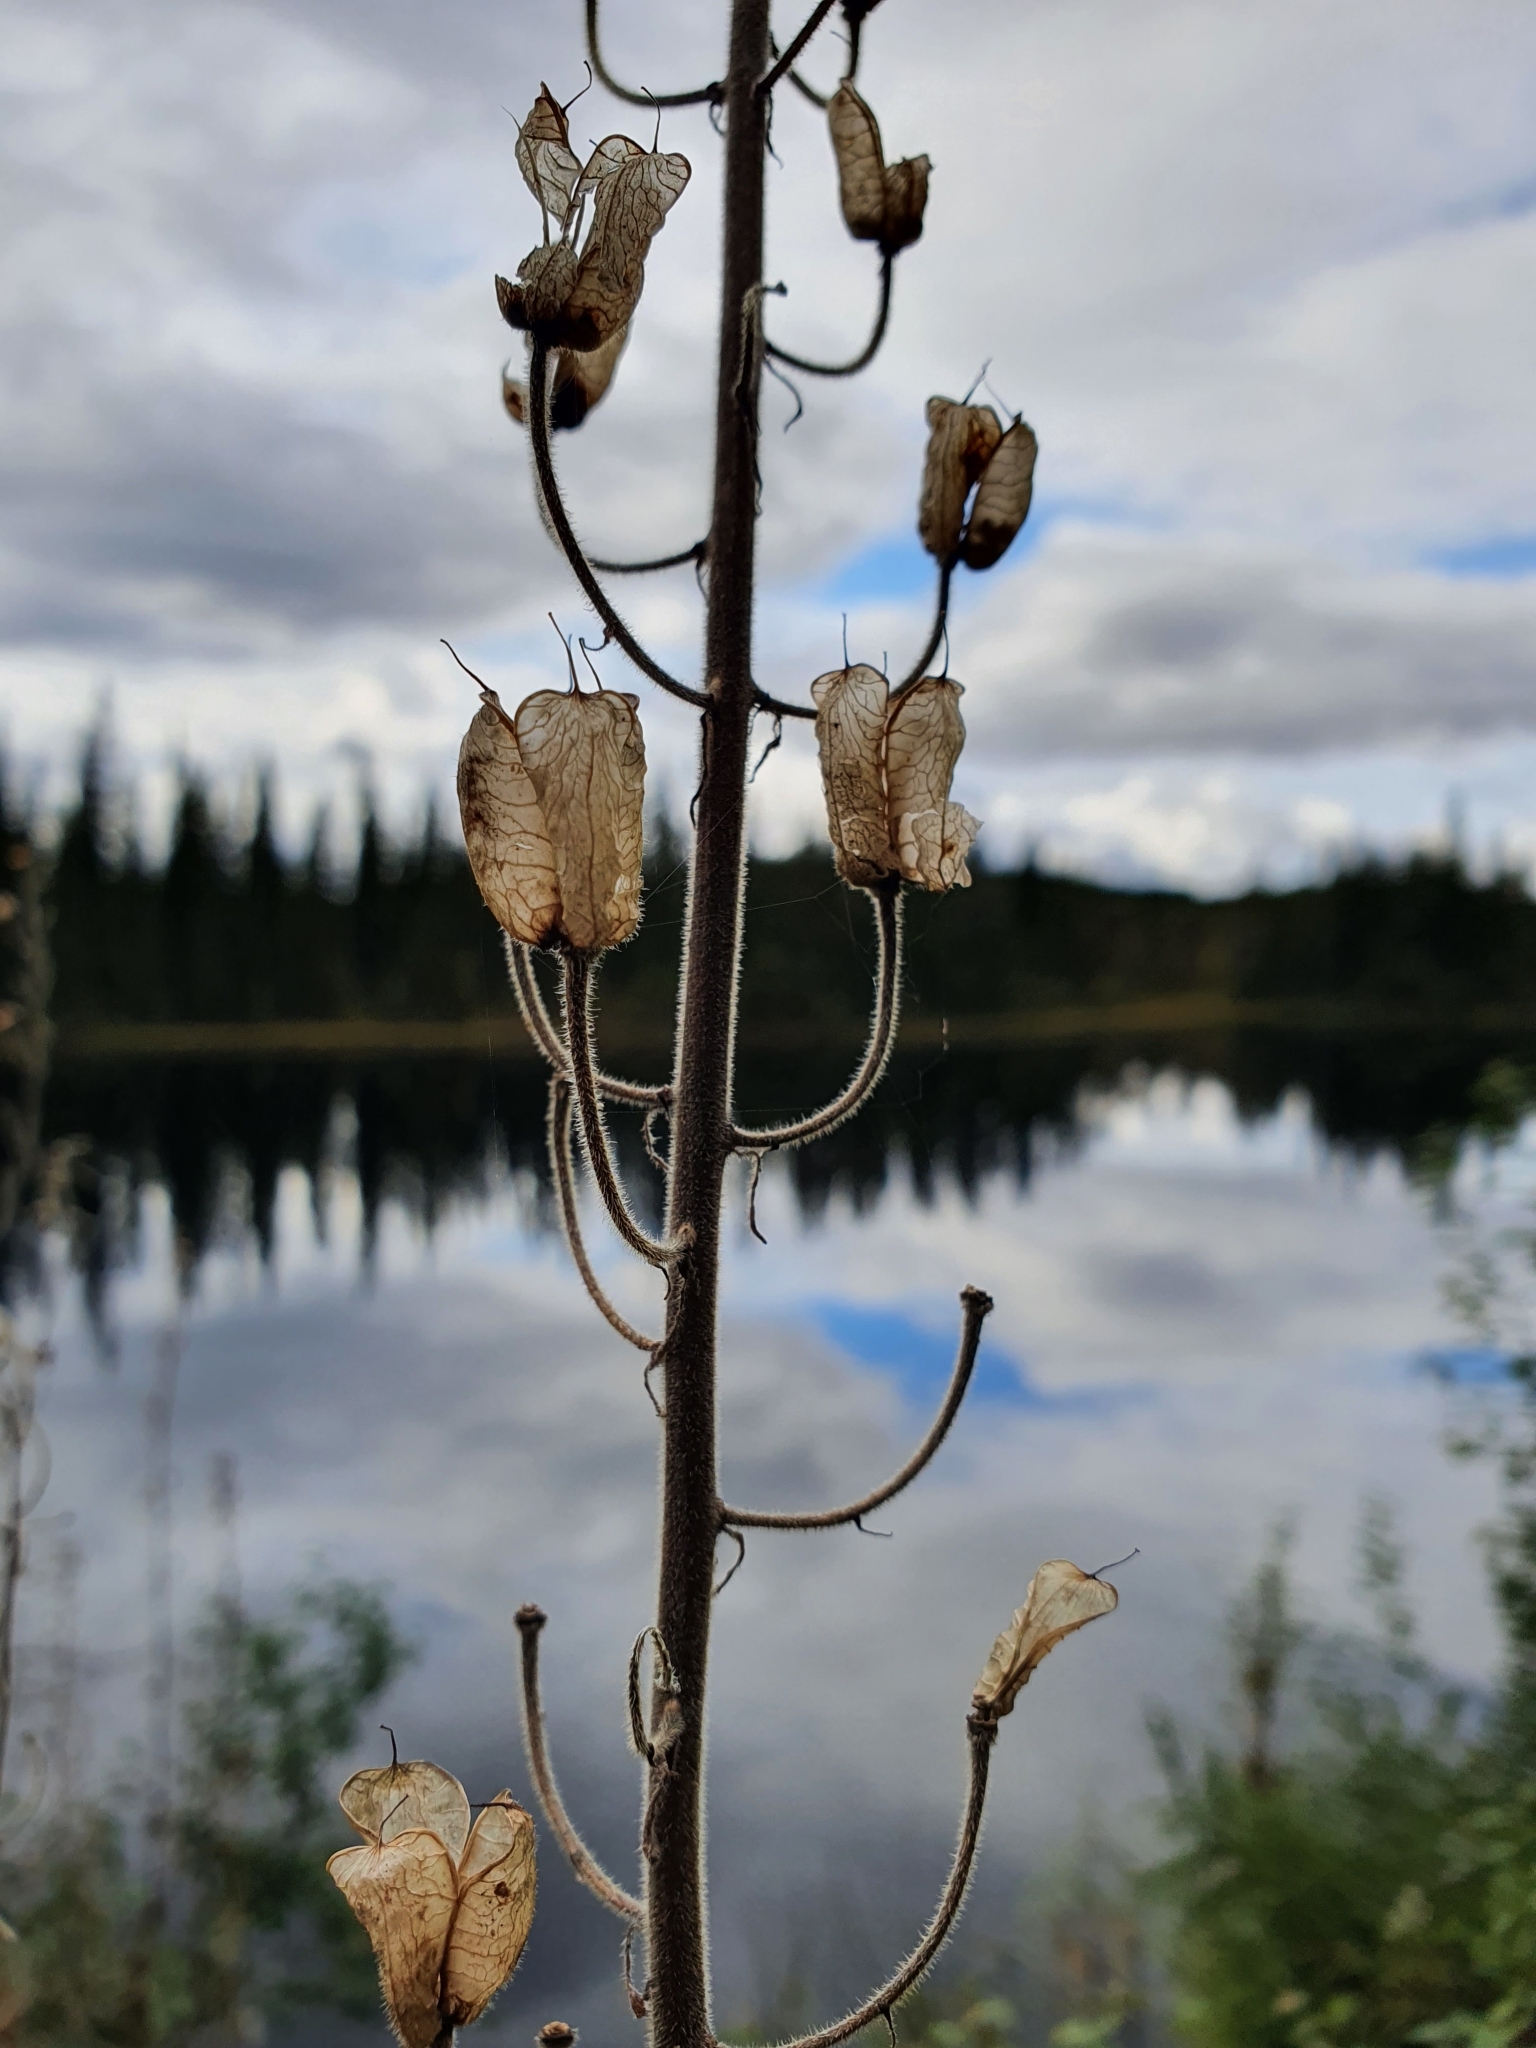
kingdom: Plantae
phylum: Tracheophyta
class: Magnoliopsida
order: Ranunculales
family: Ranunculaceae
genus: Aconitum
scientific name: Aconitum septentrionale
